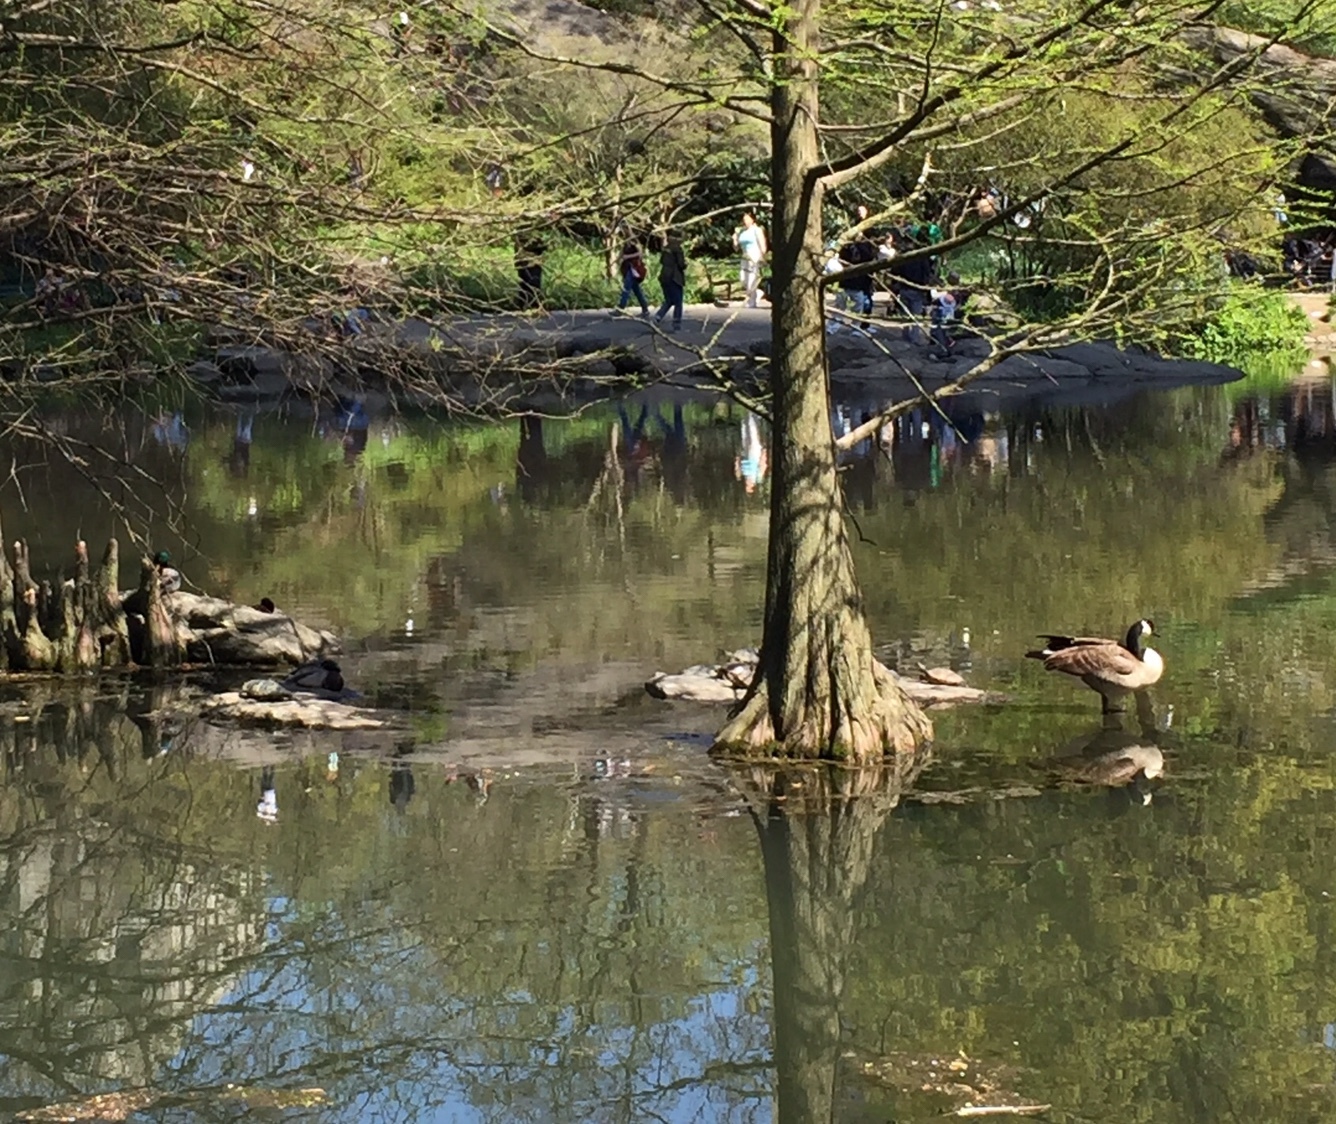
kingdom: Animalia
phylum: Chordata
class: Aves
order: Anseriformes
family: Anatidae
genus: Branta
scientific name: Branta canadensis
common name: Canada goose
